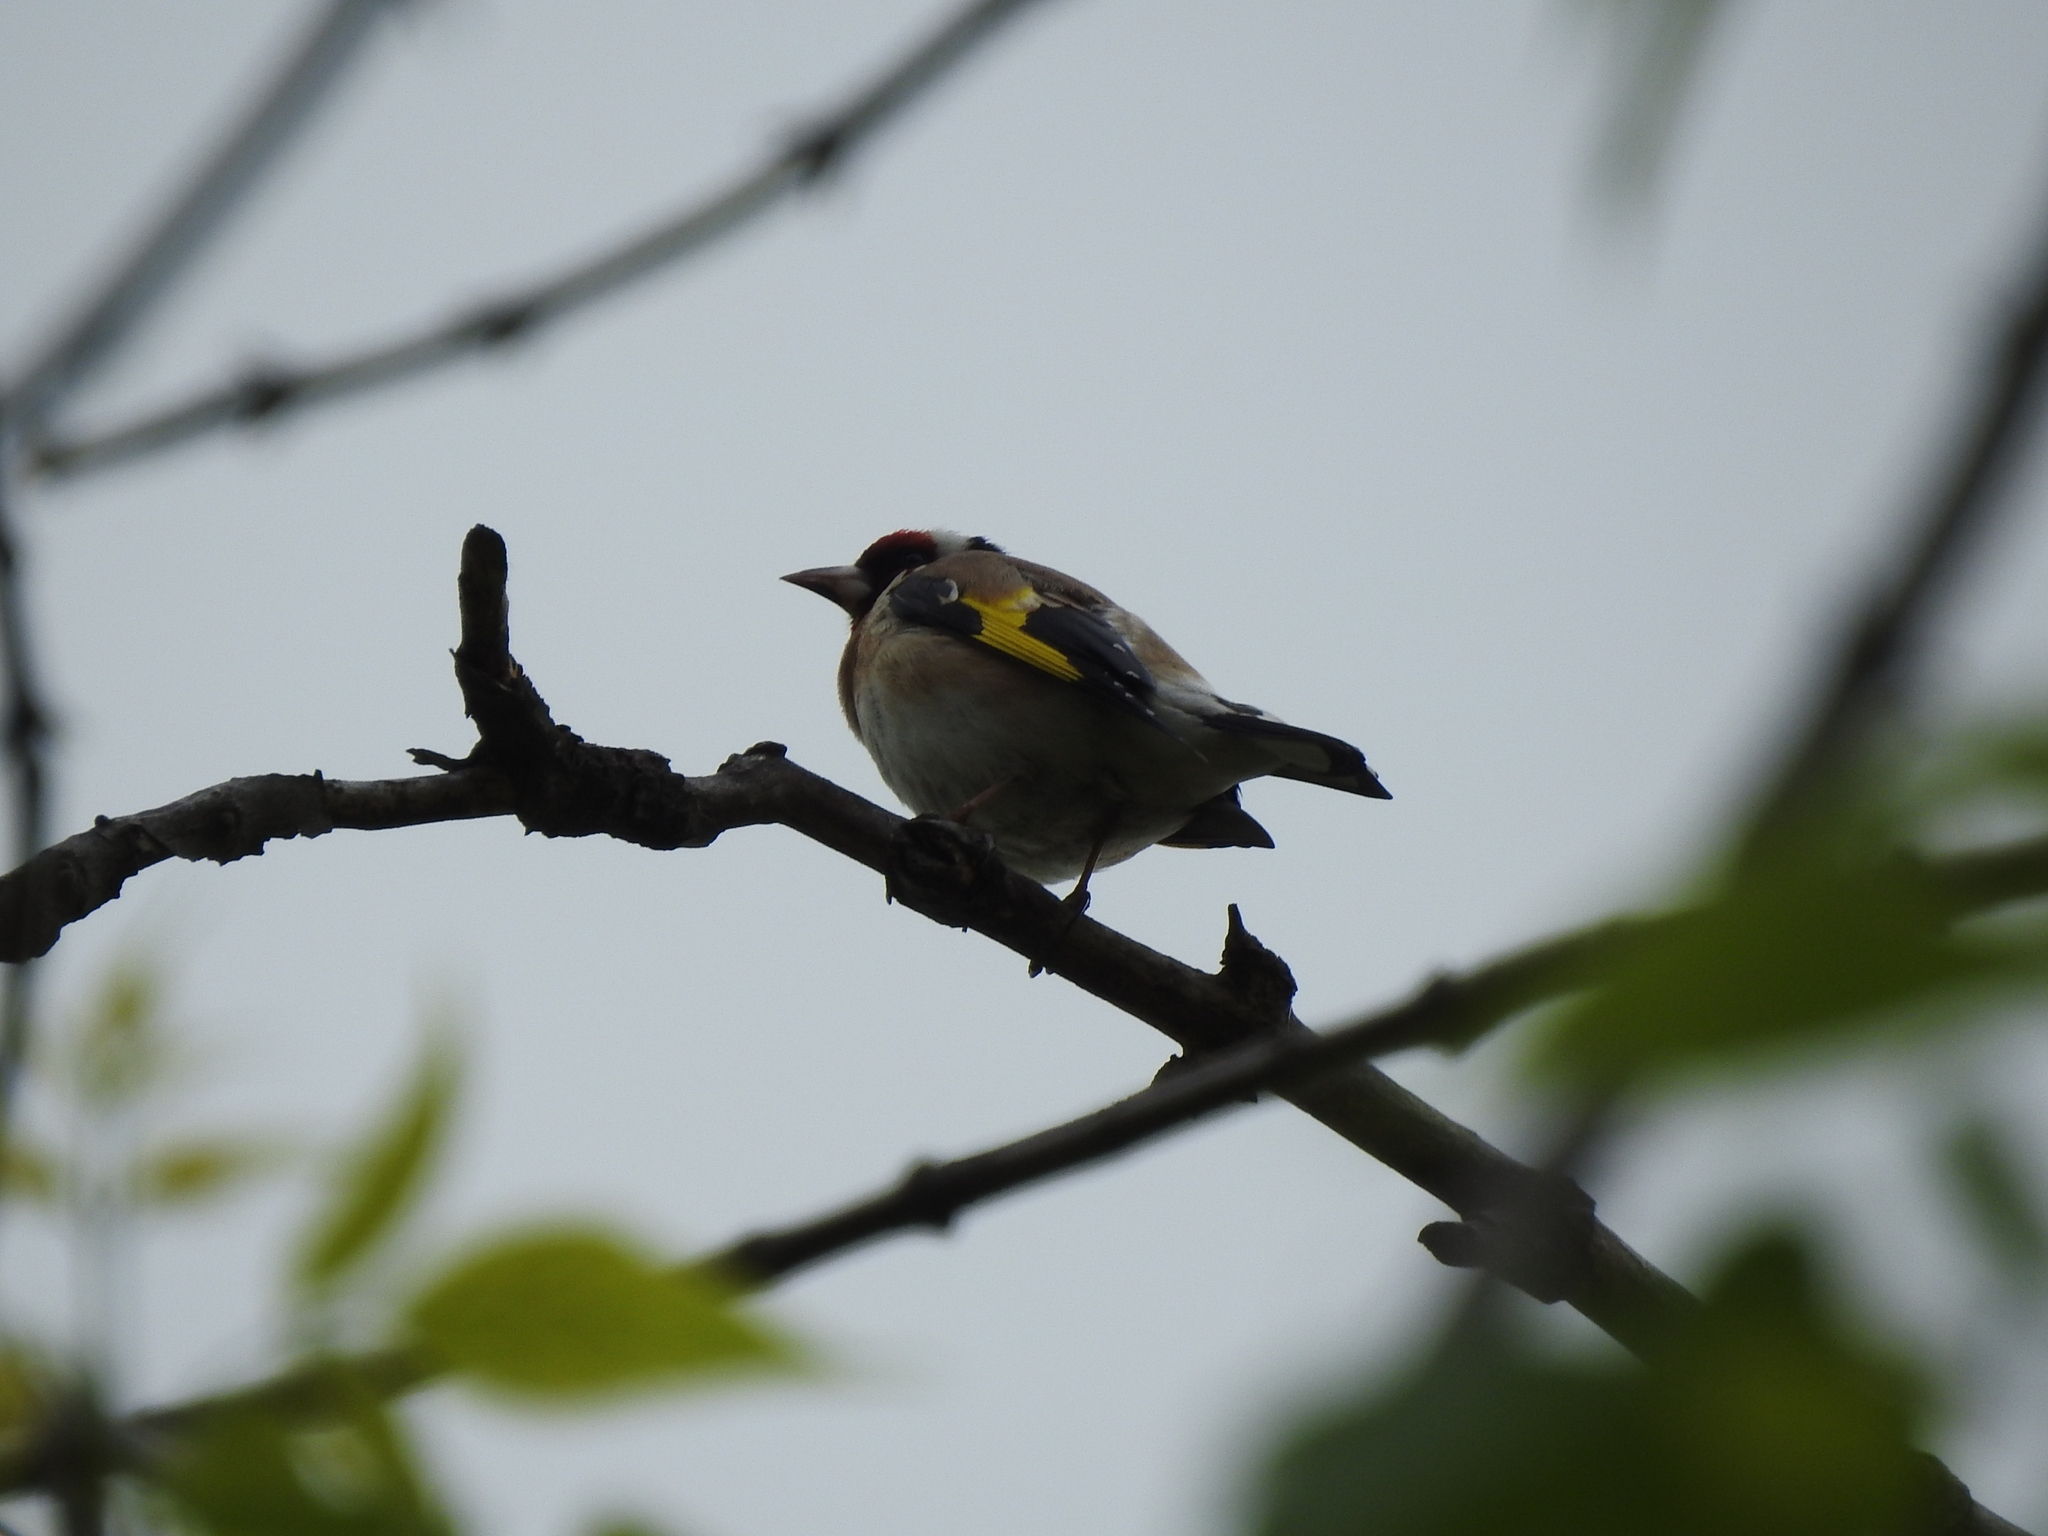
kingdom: Animalia
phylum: Chordata
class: Aves
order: Passeriformes
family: Fringillidae
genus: Carduelis
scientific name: Carduelis carduelis
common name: European goldfinch
